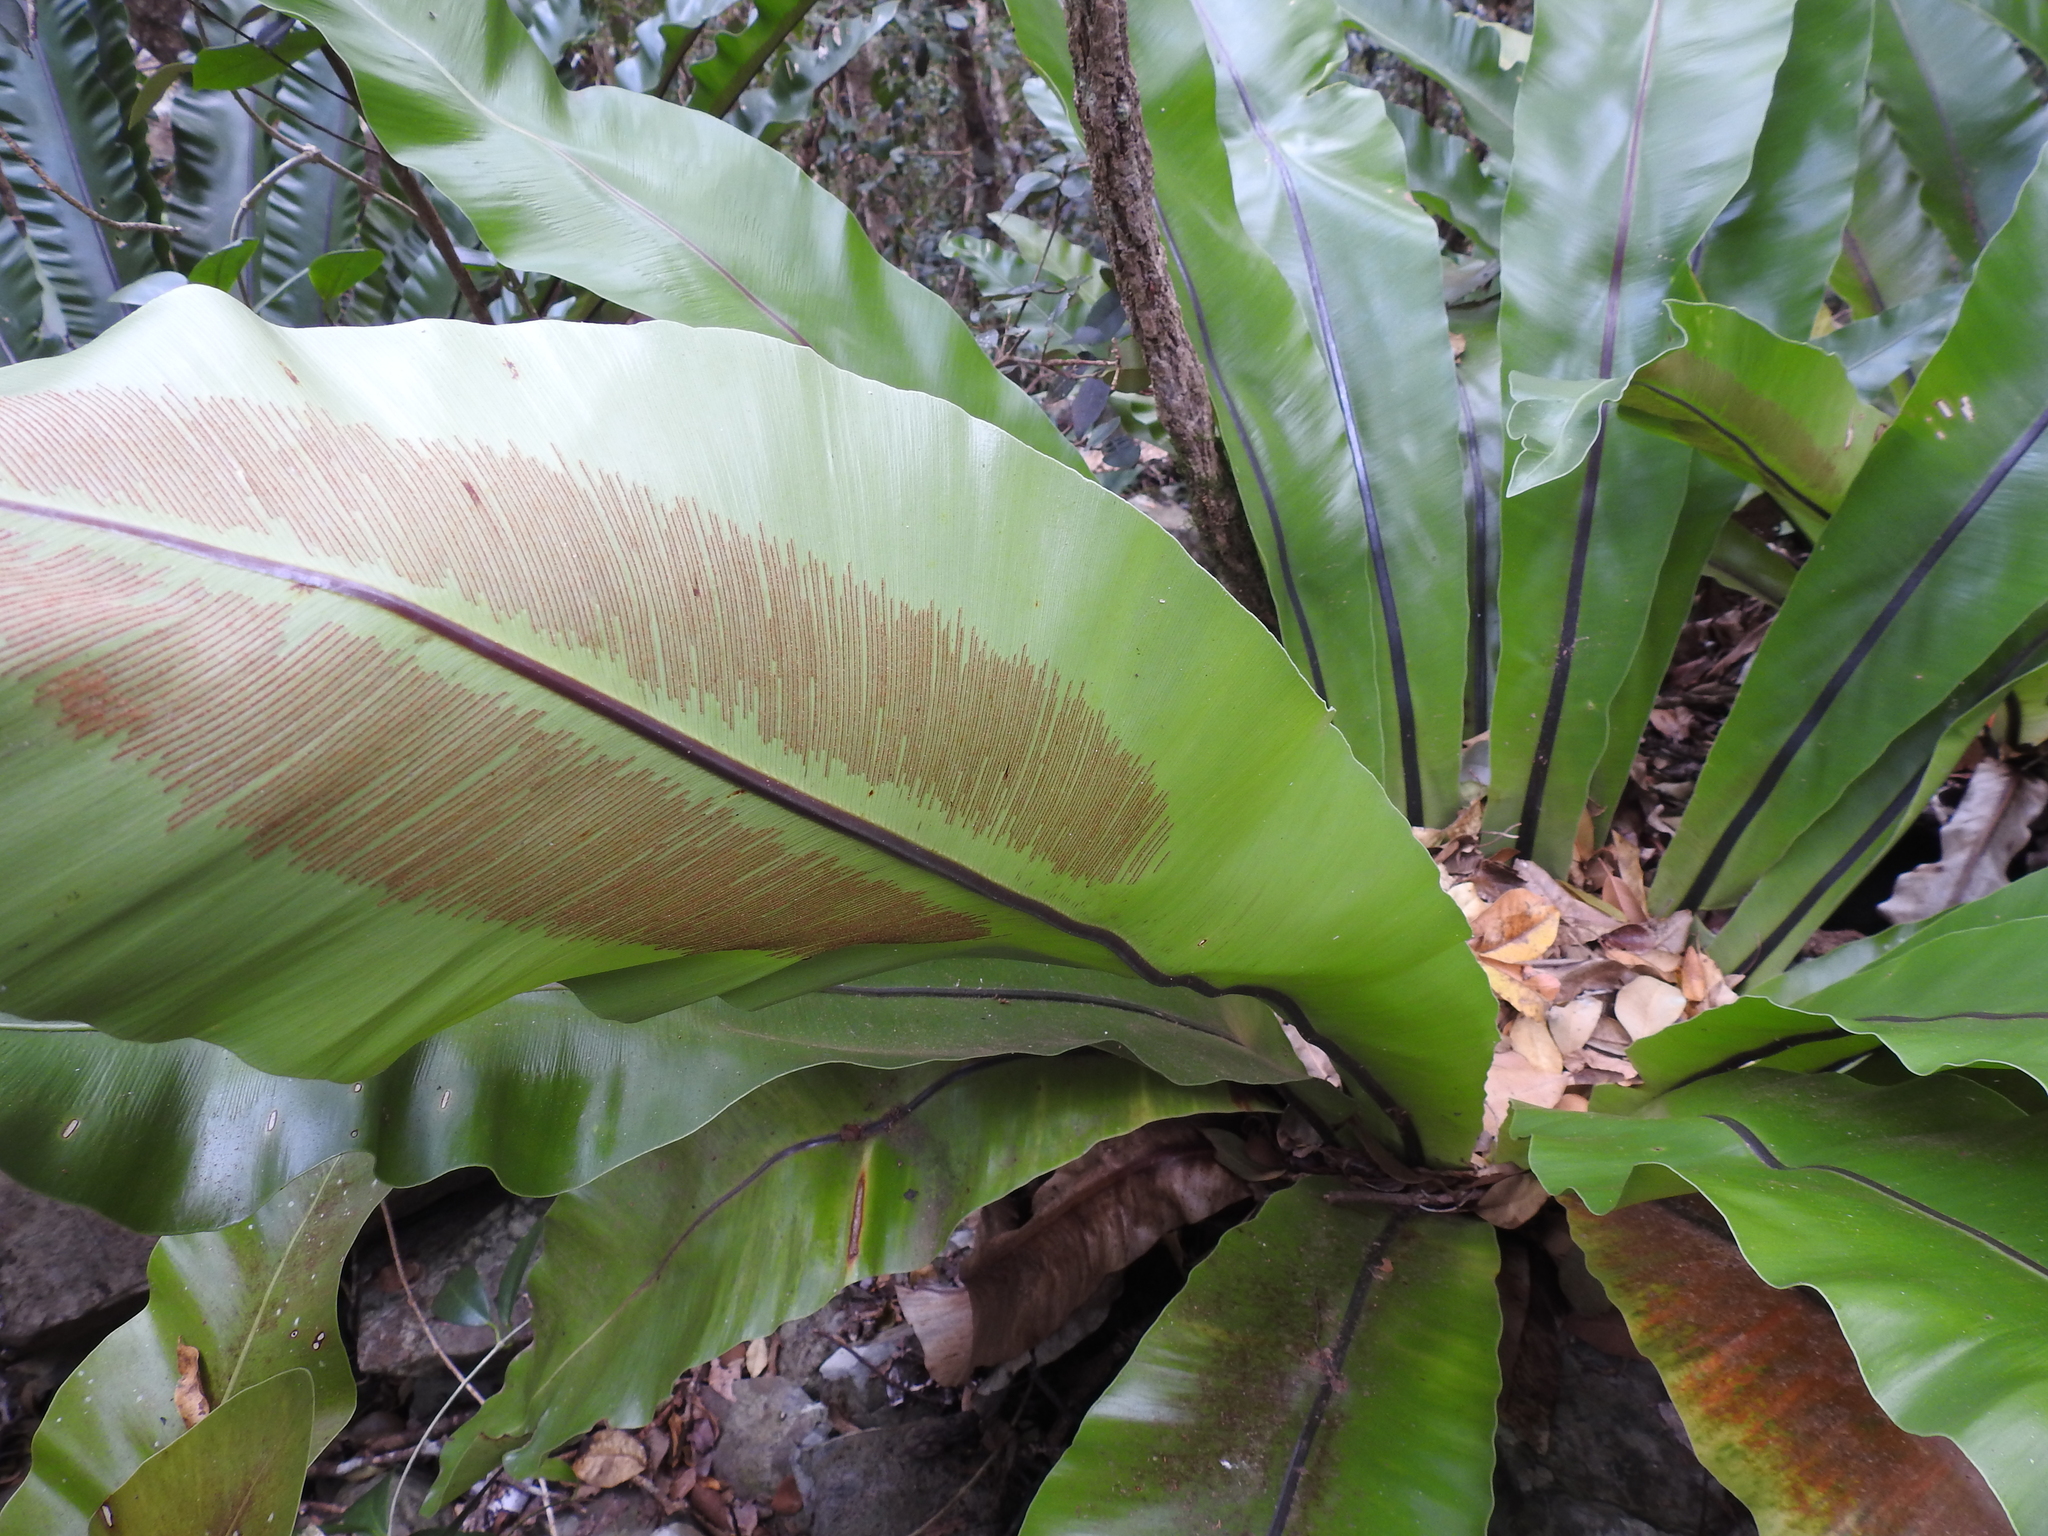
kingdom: Plantae
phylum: Tracheophyta
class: Polypodiopsida
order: Polypodiales
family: Aspleniaceae
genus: Asplenium
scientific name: Asplenium australasicum
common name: Bird's-nest fern
